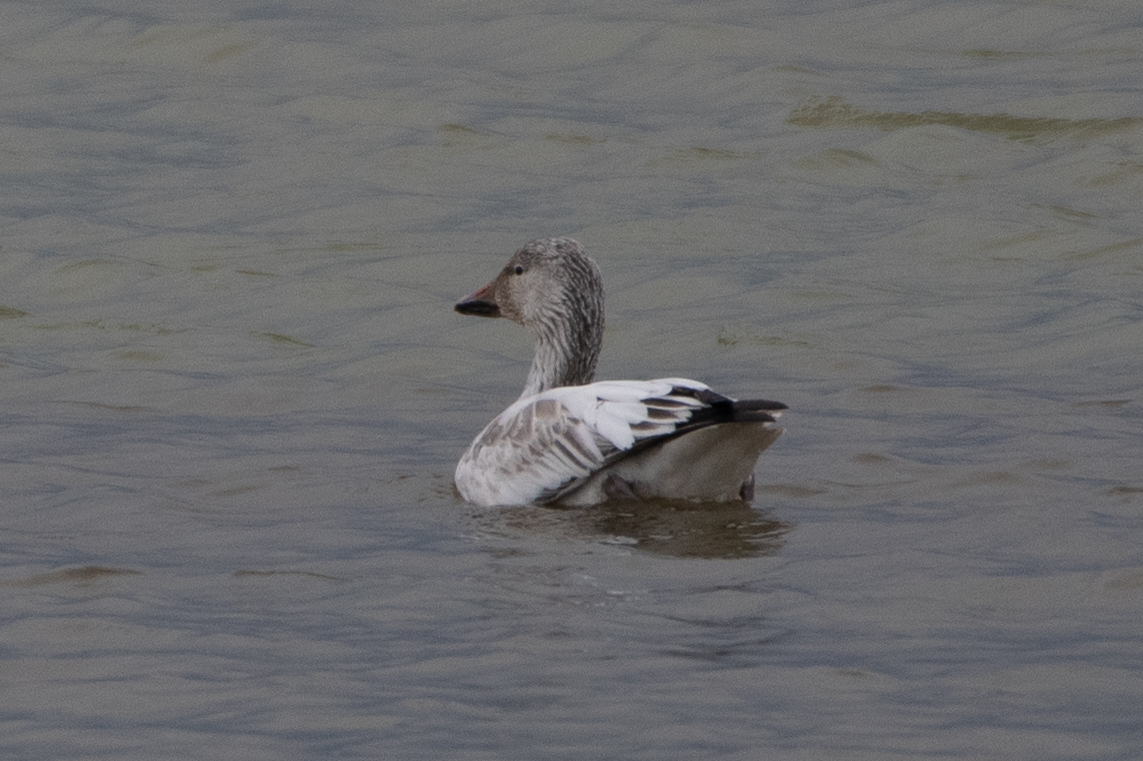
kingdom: Animalia
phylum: Chordata
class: Aves
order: Anseriformes
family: Anatidae
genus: Anser
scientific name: Anser caerulescens
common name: Snow goose
